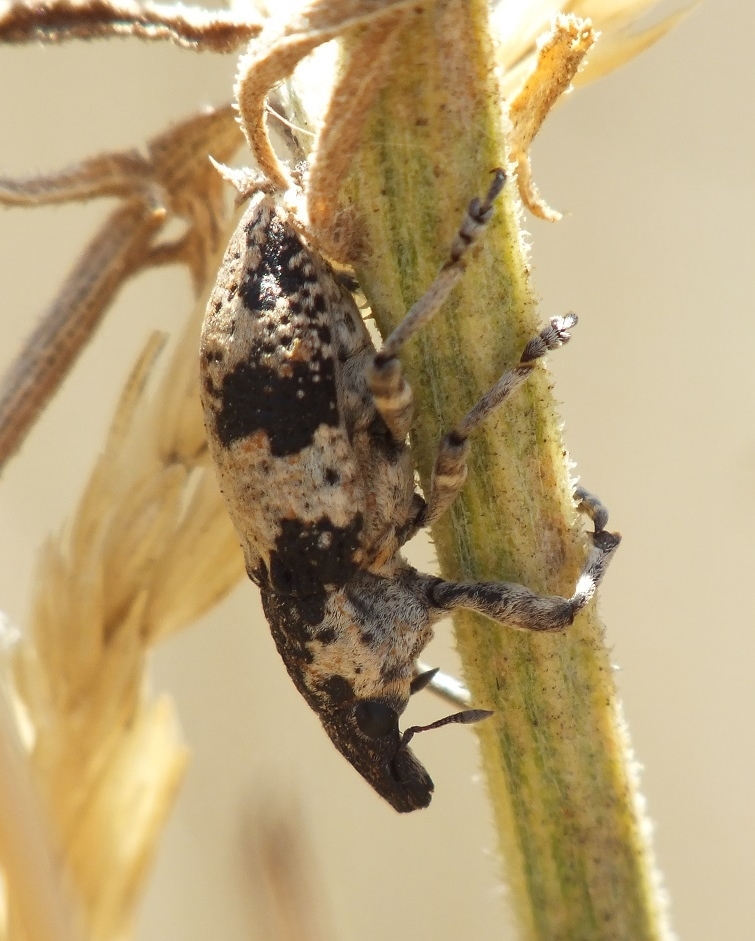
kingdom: Animalia
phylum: Arthropoda
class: Insecta
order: Coleoptera
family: Curculionidae
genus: Bothynoderes
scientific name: Bothynoderes affinis
